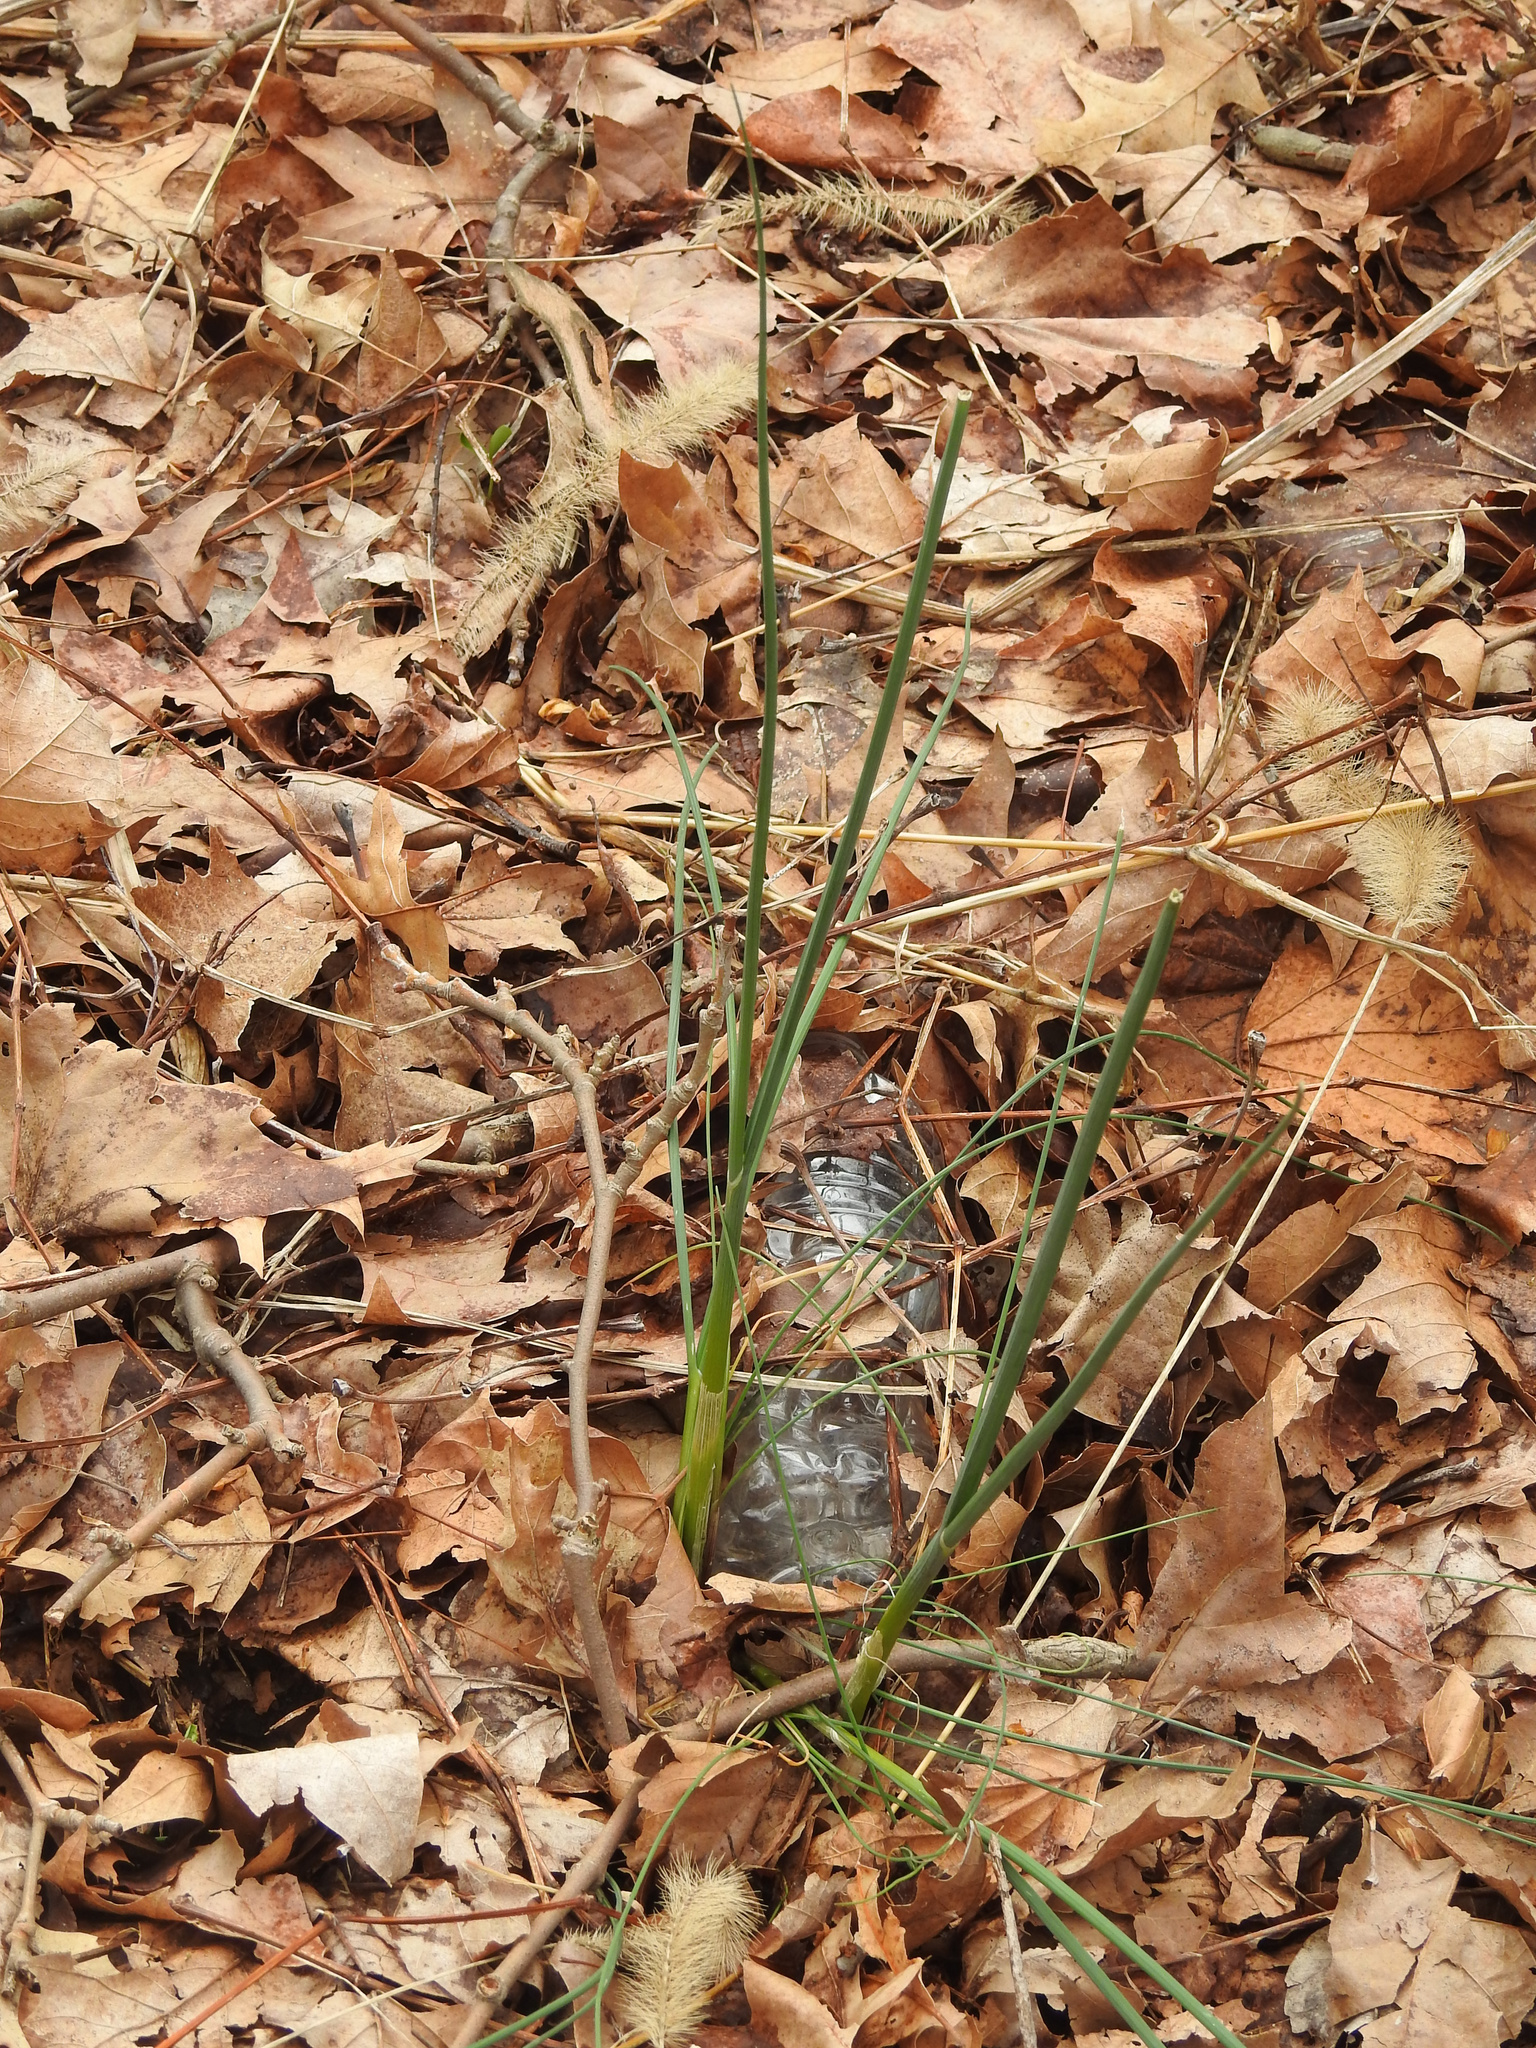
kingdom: Plantae
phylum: Tracheophyta
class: Liliopsida
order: Asparagales
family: Amaryllidaceae
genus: Allium
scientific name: Allium vineale
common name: Crow garlic
